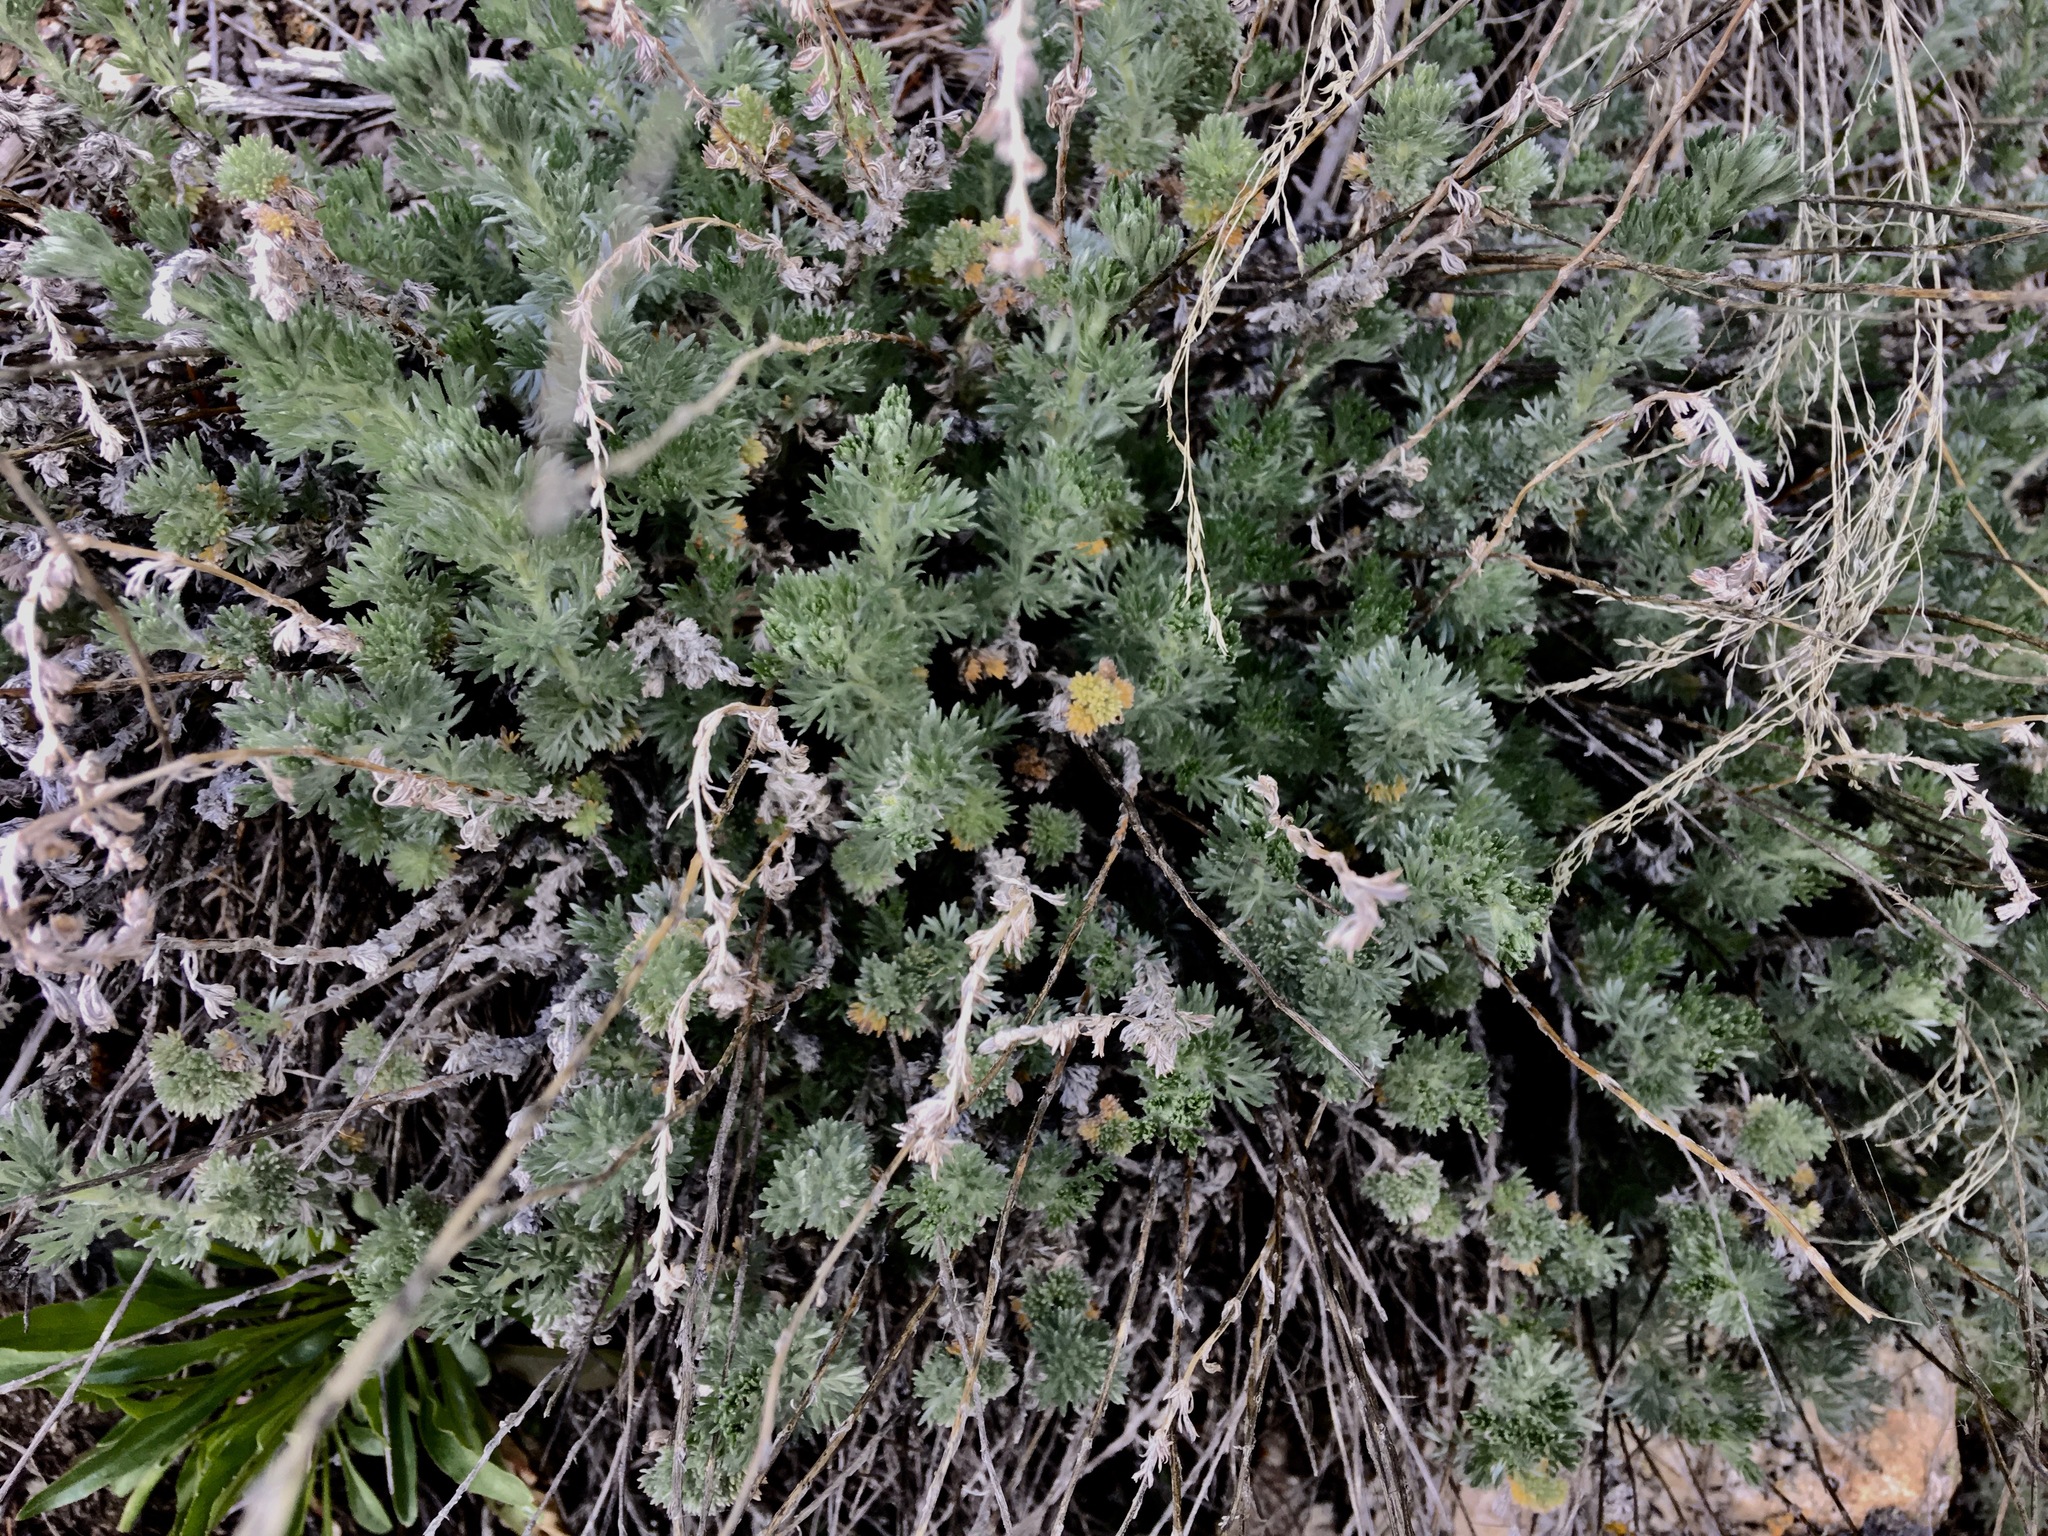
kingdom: Plantae
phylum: Tracheophyta
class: Magnoliopsida
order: Asterales
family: Asteraceae
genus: Artemisia
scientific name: Artemisia frigida
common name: Prairie sagewort
